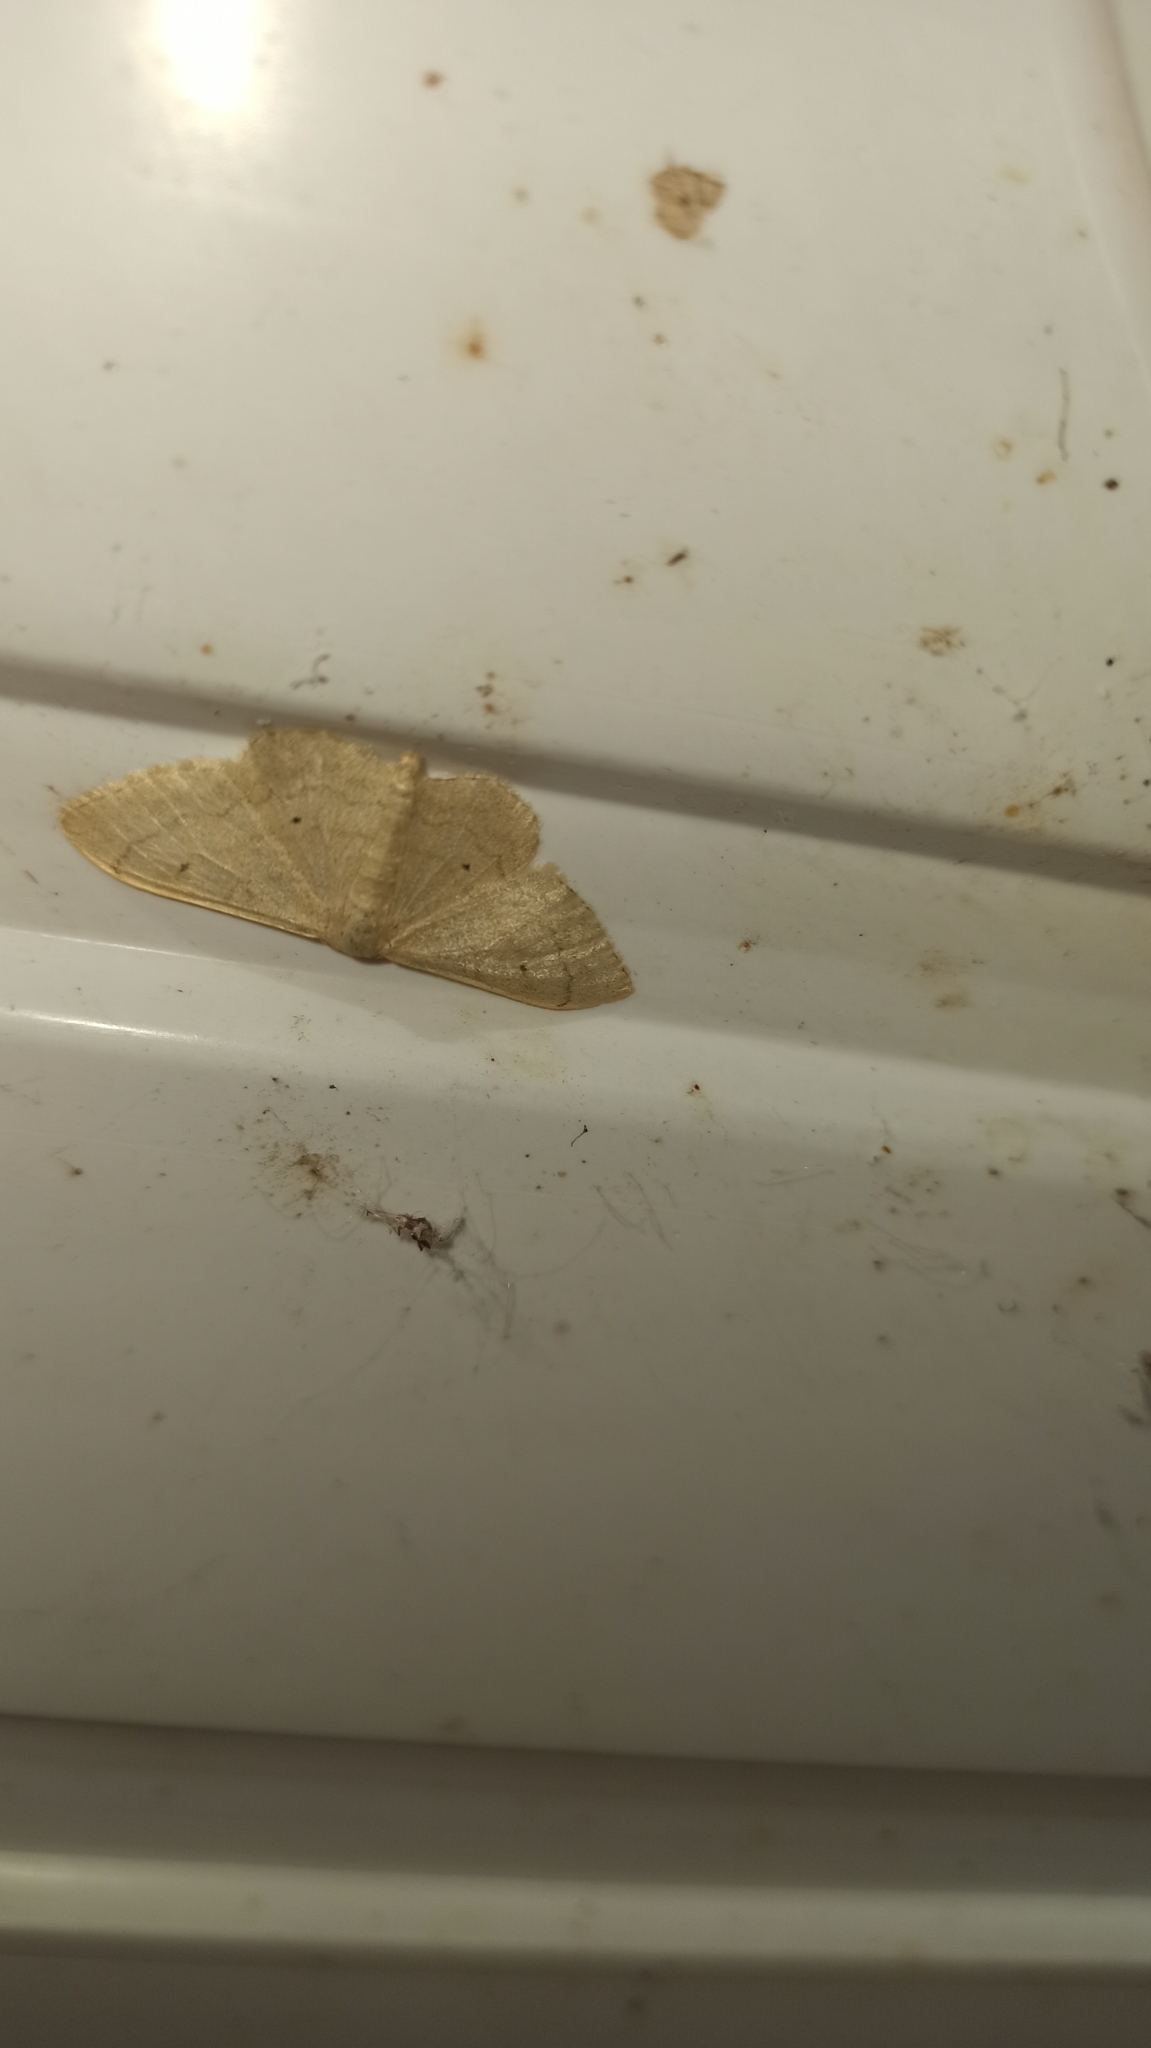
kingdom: Animalia
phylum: Arthropoda
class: Insecta
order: Lepidoptera
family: Geometridae
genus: Idaea
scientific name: Idaea straminata
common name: Plain wave
